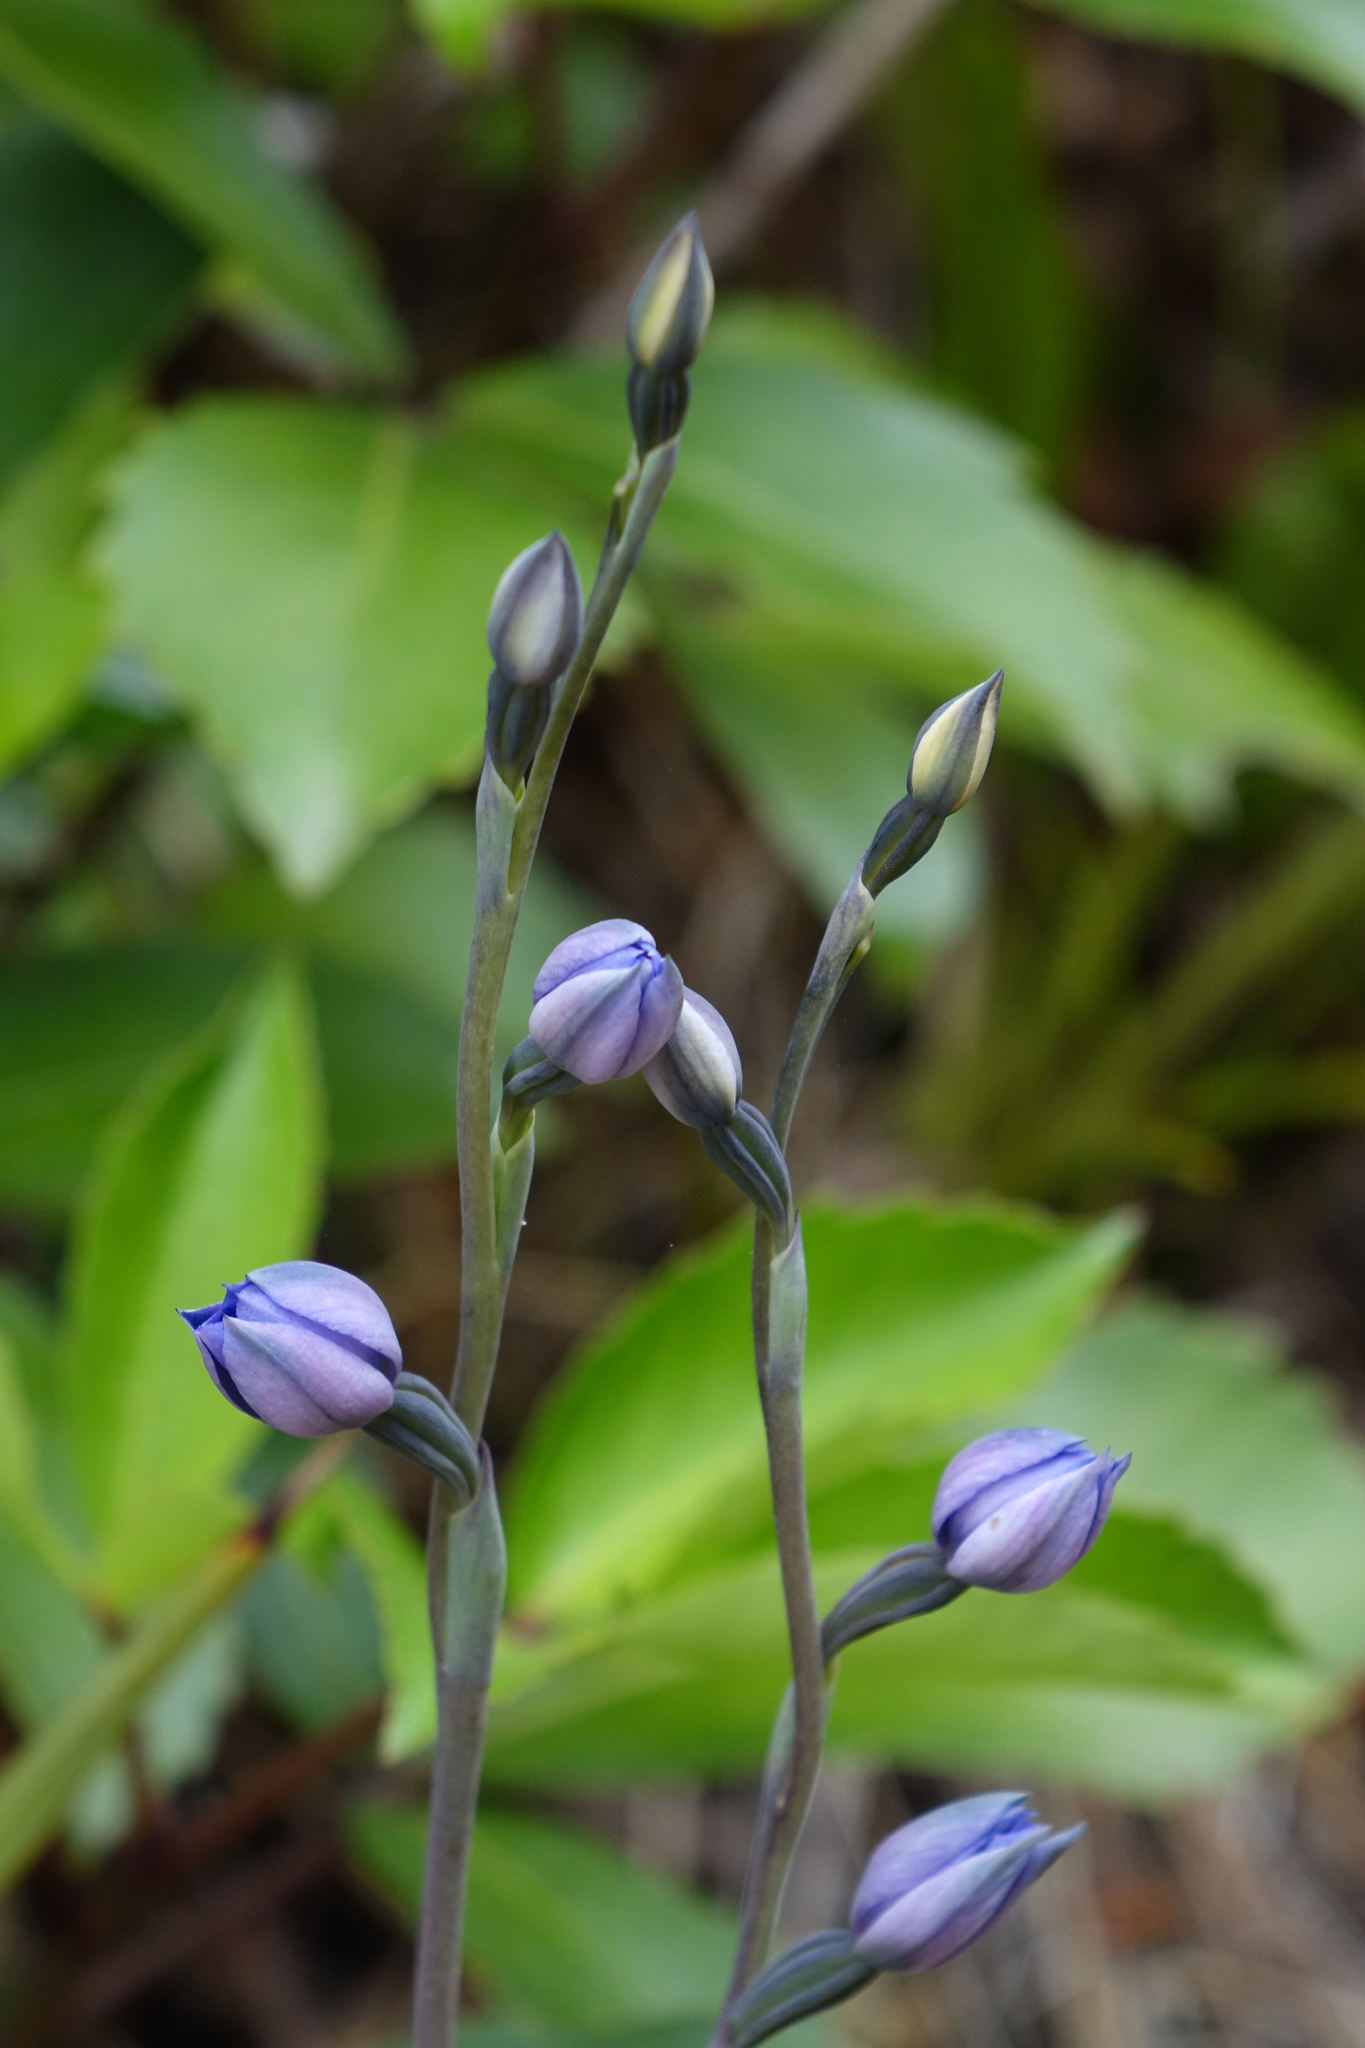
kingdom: Plantae
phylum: Tracheophyta
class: Liliopsida
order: Asparagales
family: Orchidaceae
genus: Thelymitra
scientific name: Thelymitra pulchella
